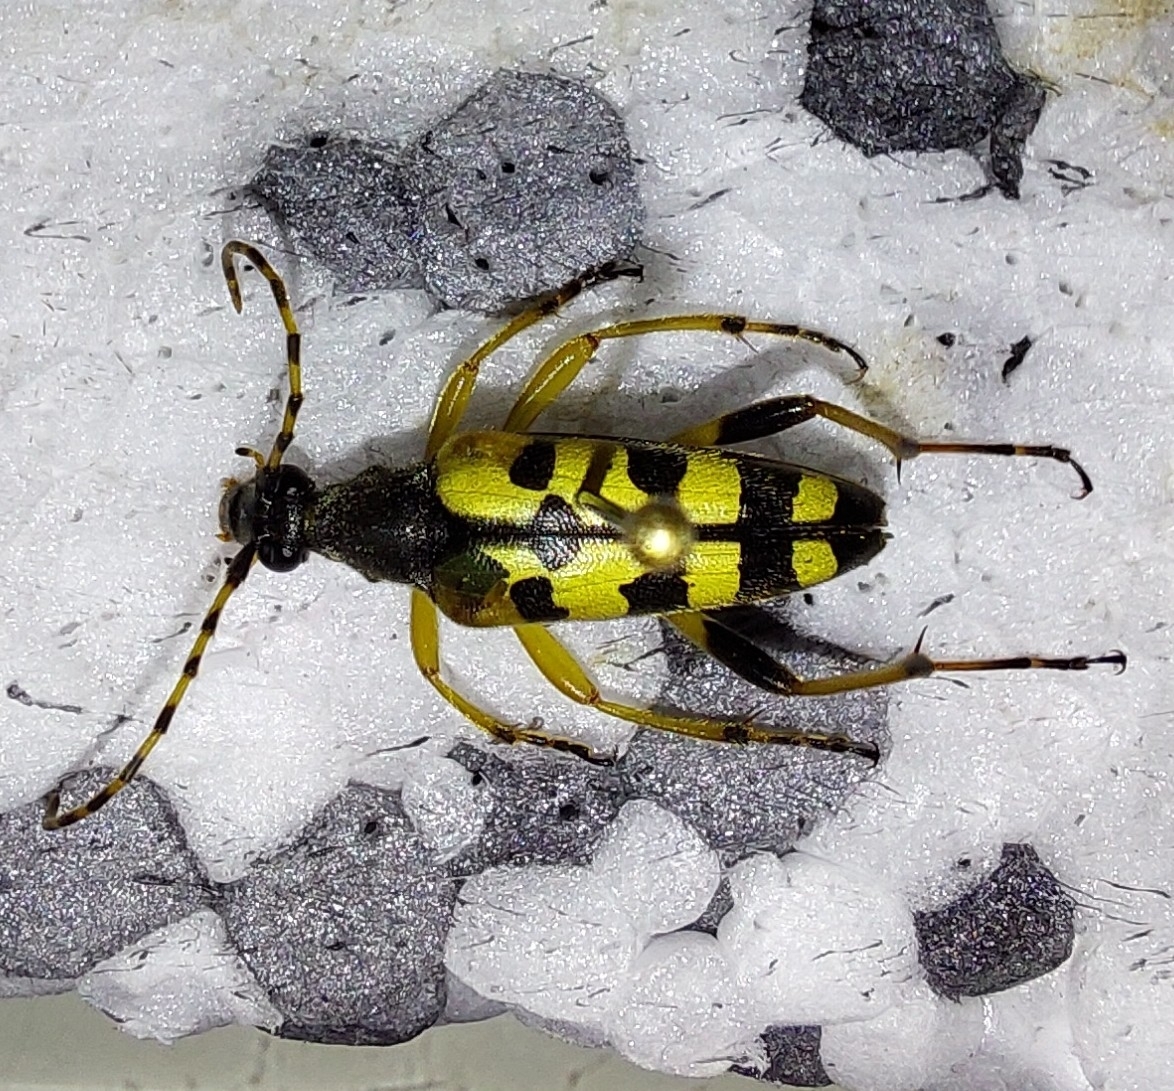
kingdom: Animalia
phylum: Arthropoda
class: Insecta
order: Coleoptera
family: Cerambycidae
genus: Rutpela
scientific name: Rutpela maculata
